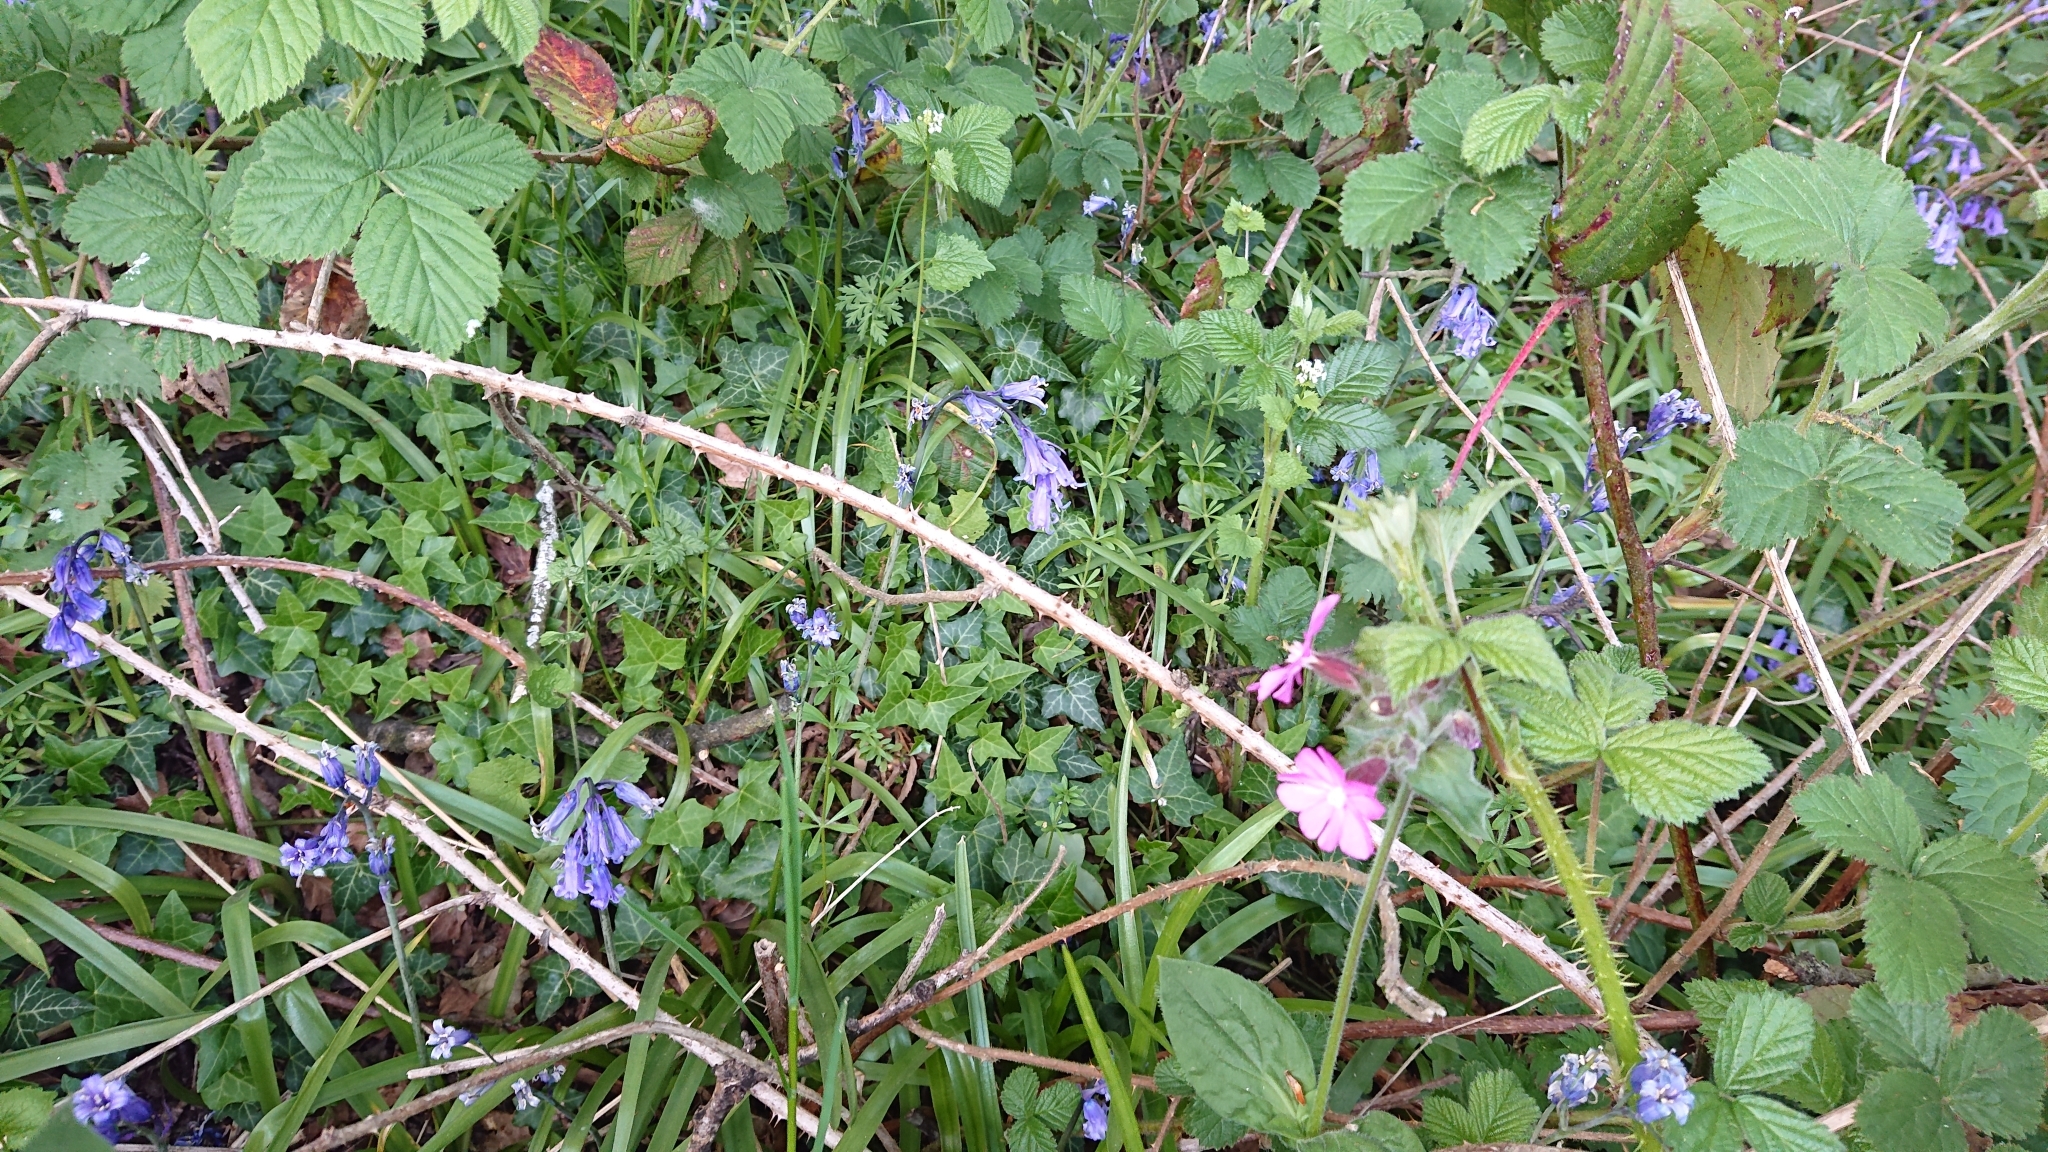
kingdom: Plantae
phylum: Tracheophyta
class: Liliopsida
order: Asparagales
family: Asparagaceae
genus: Hyacinthoides
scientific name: Hyacinthoides non-scripta
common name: Bluebell
